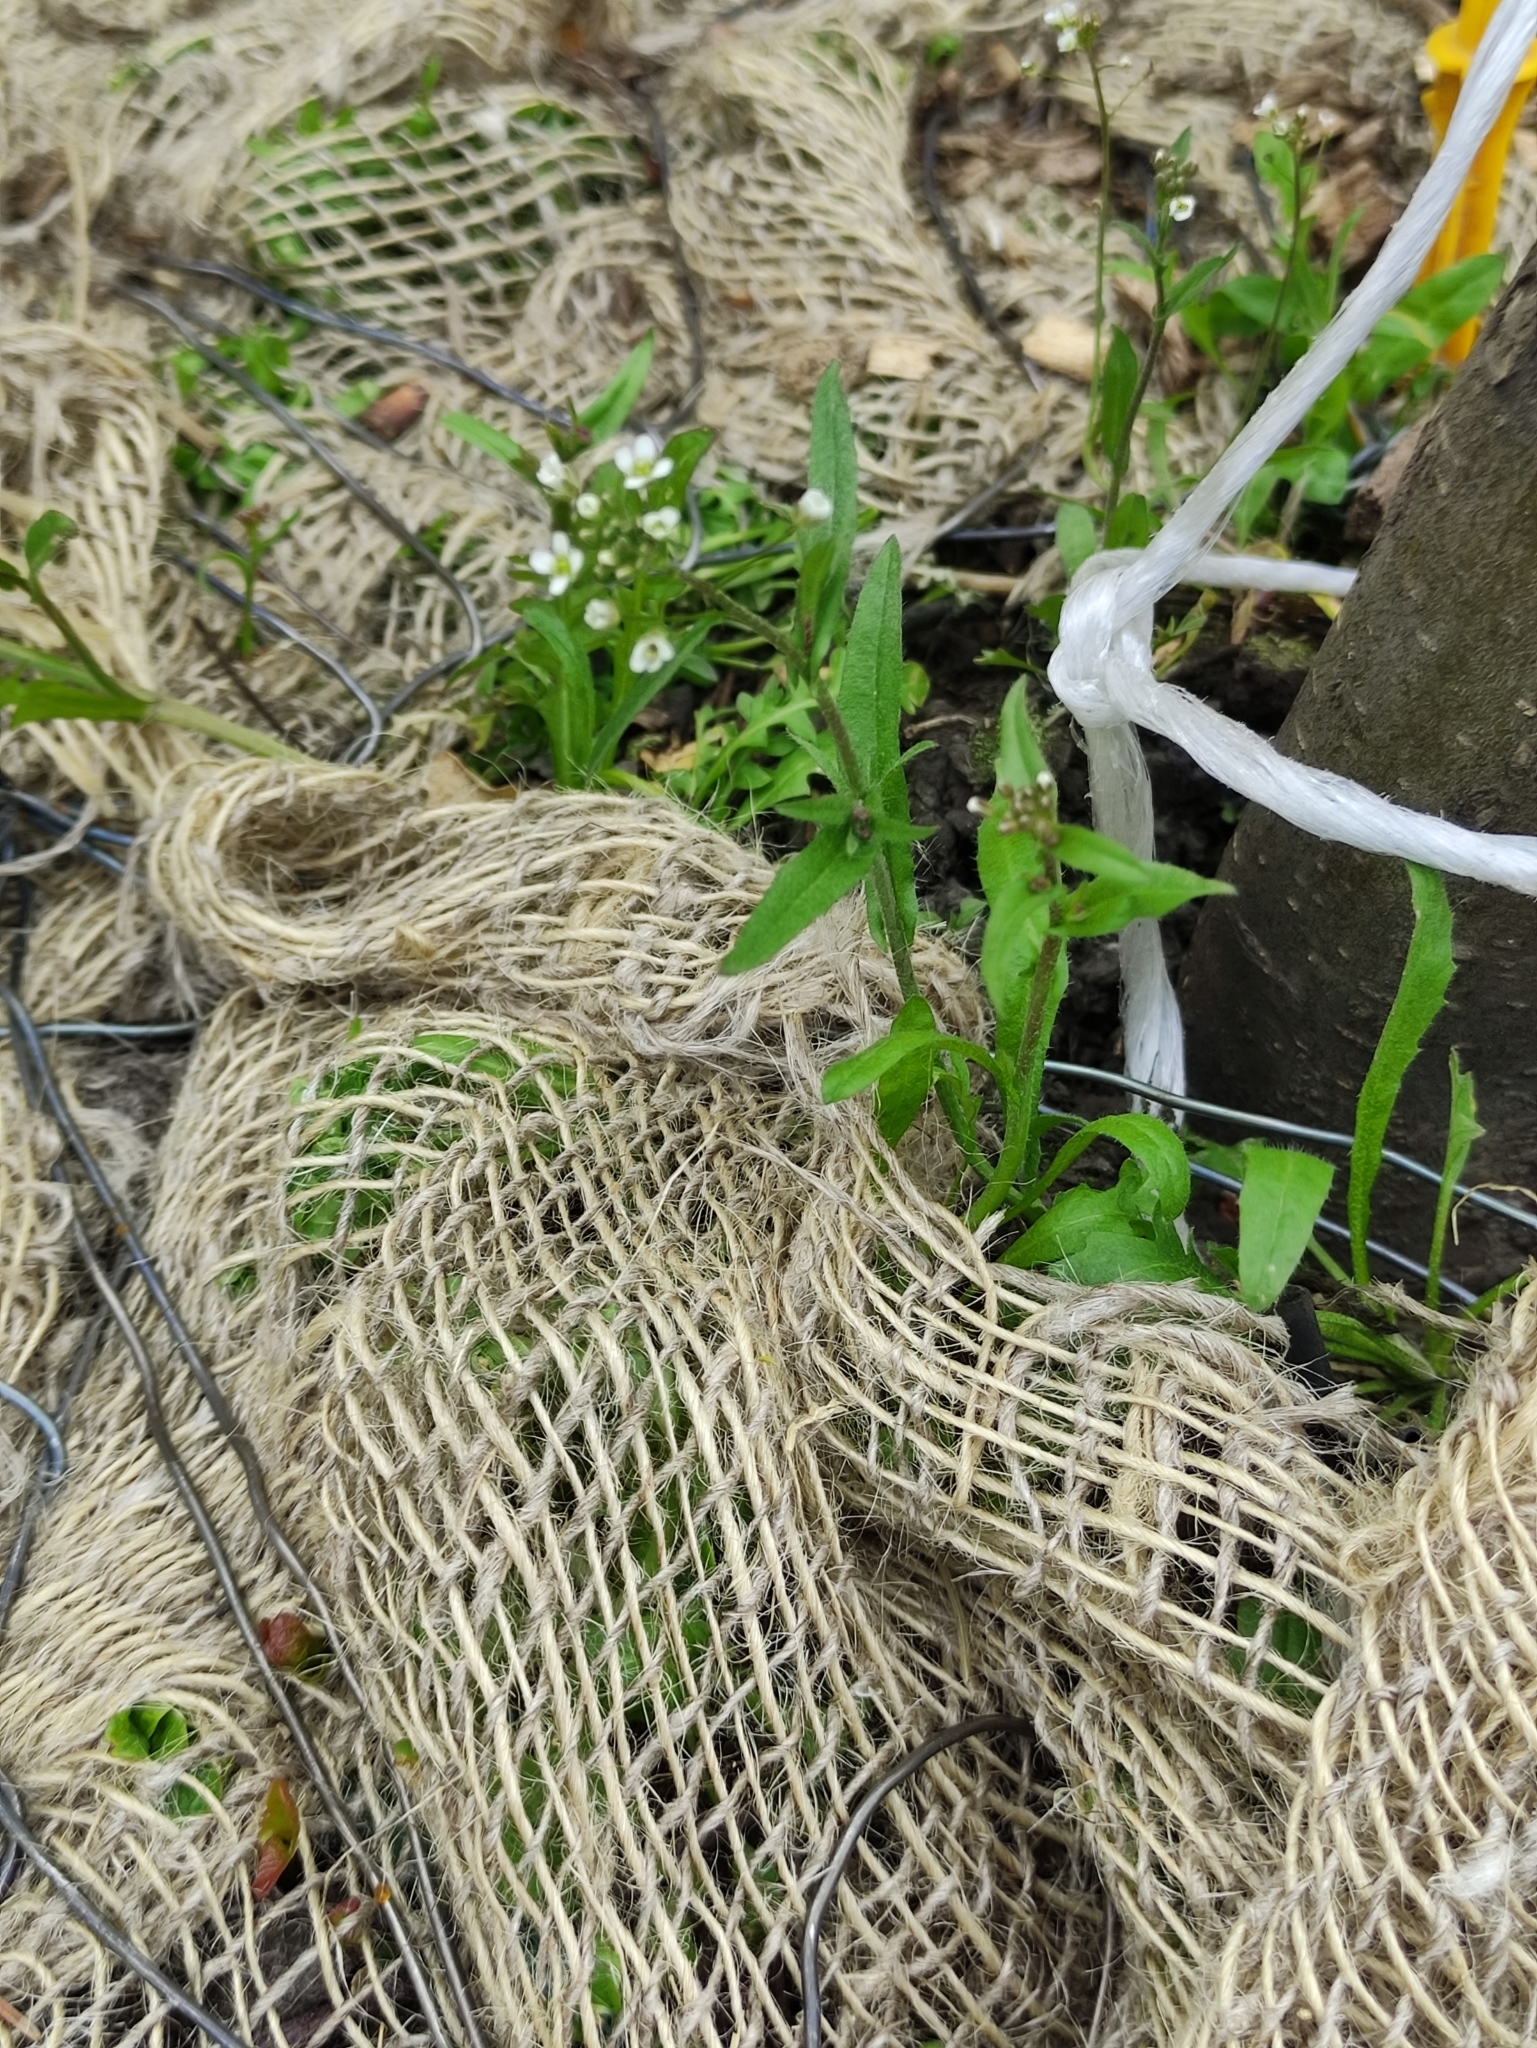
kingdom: Plantae
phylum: Tracheophyta
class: Magnoliopsida
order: Brassicales
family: Brassicaceae
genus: Capsella
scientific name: Capsella bursa-pastoris
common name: Shepherd's purse
